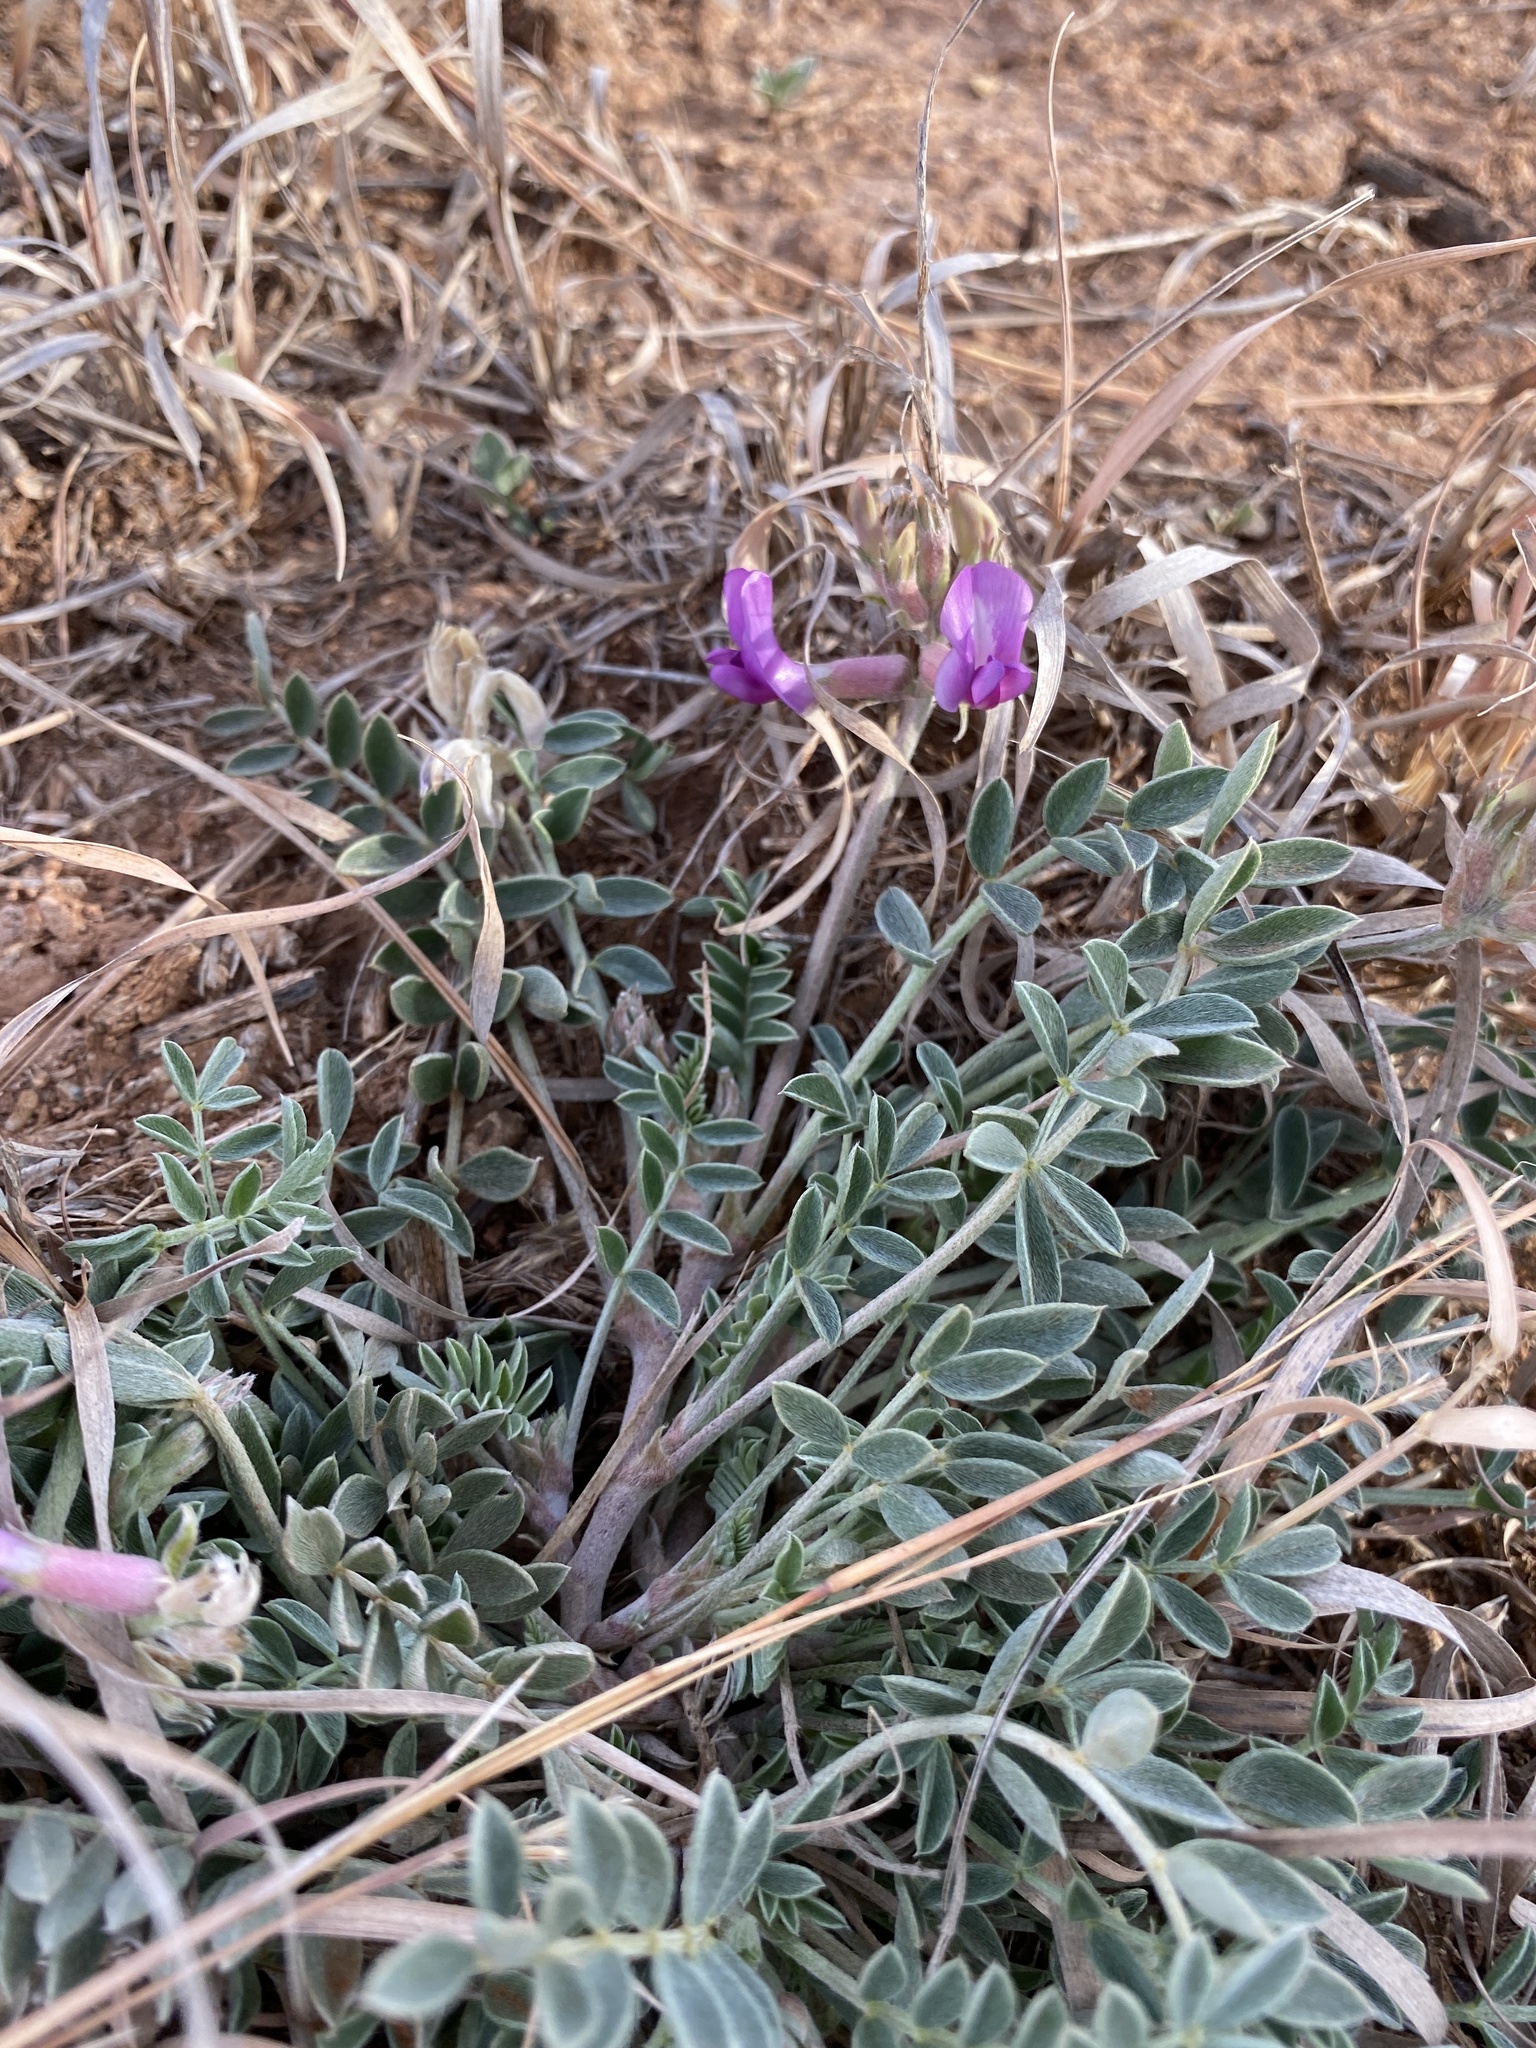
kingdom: Plantae
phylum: Tracheophyta
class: Magnoliopsida
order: Fabales
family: Fabaceae
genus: Astragalus
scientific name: Astragalus missouriensis
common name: Missouri milk-vetch
